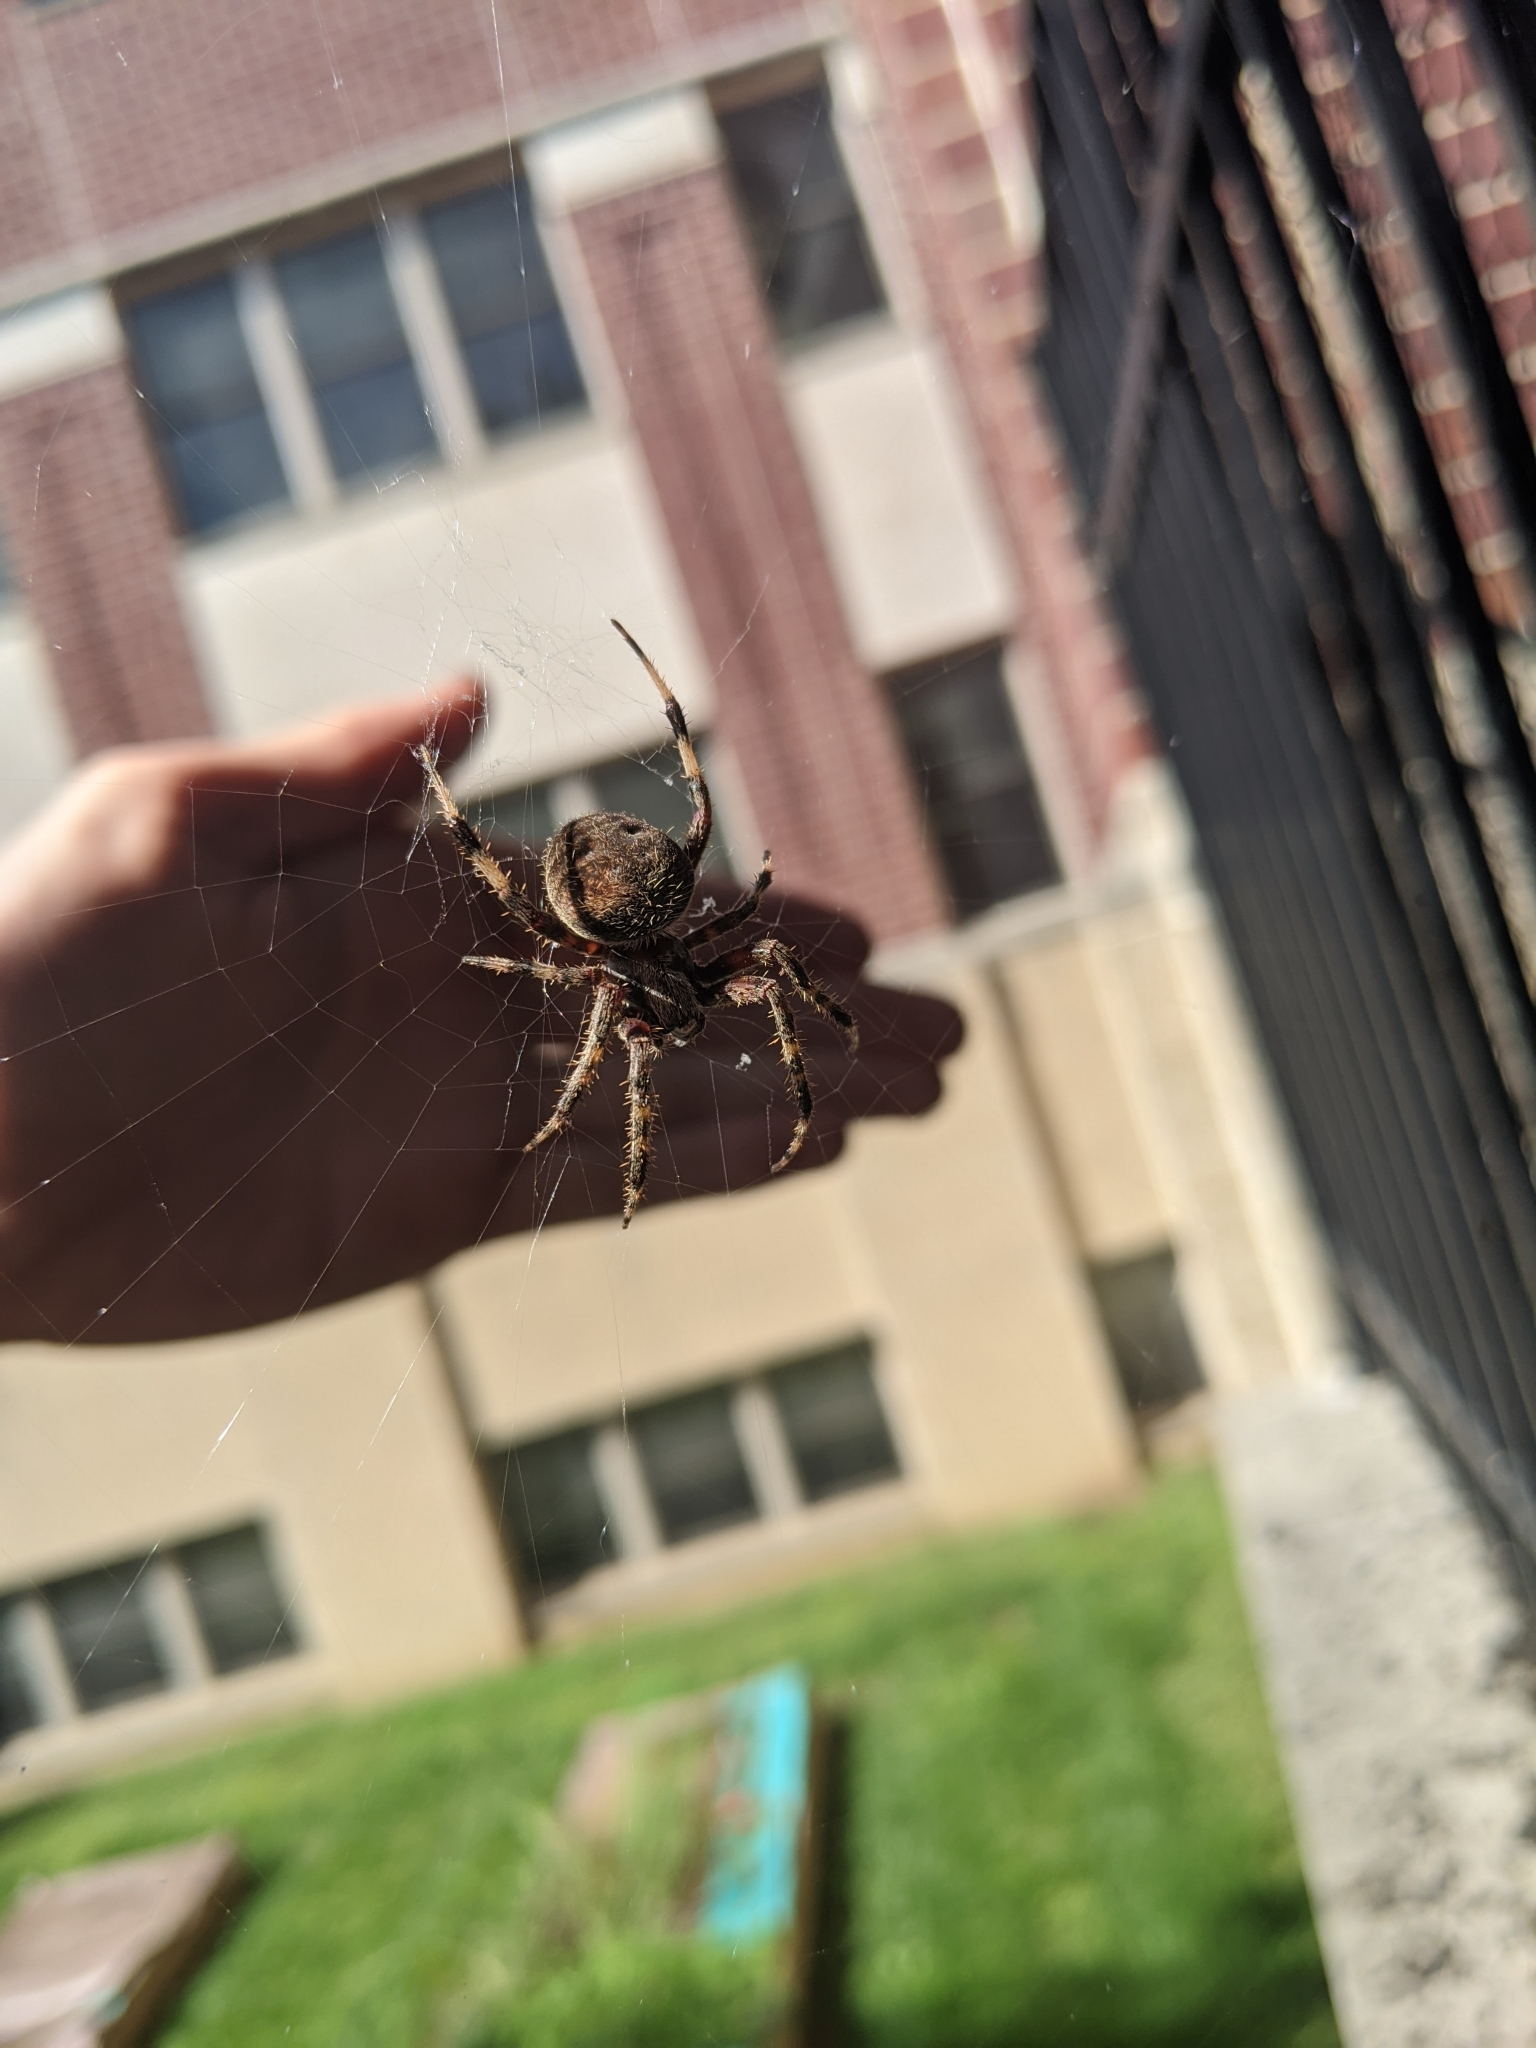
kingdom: Animalia
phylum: Arthropoda
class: Arachnida
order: Araneae
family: Araneidae
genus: Neoscona
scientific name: Neoscona crucifera
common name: Spotted orbweaver
